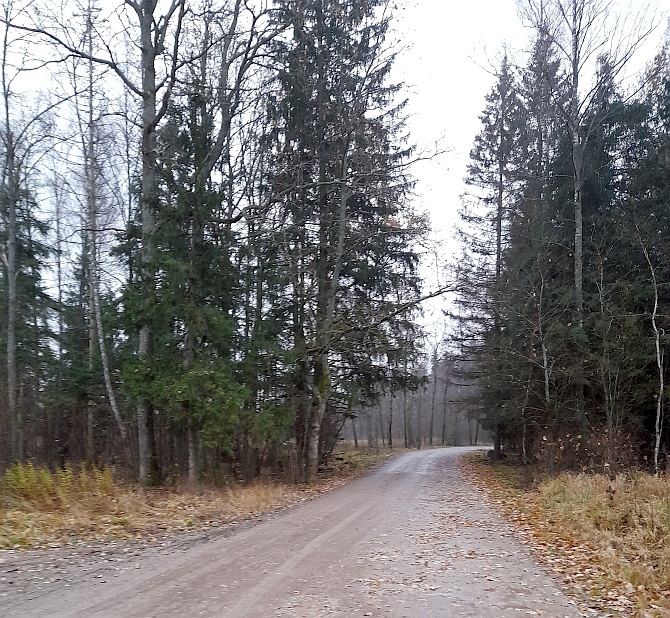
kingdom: Plantae
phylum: Tracheophyta
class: Pinopsida
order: Pinales
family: Pinaceae
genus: Picea
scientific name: Picea abies
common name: Norway spruce
